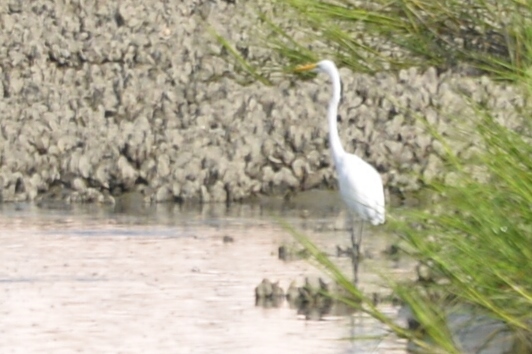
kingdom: Animalia
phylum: Chordata
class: Aves
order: Pelecaniformes
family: Ardeidae
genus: Ardea
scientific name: Ardea alba
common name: Great egret
